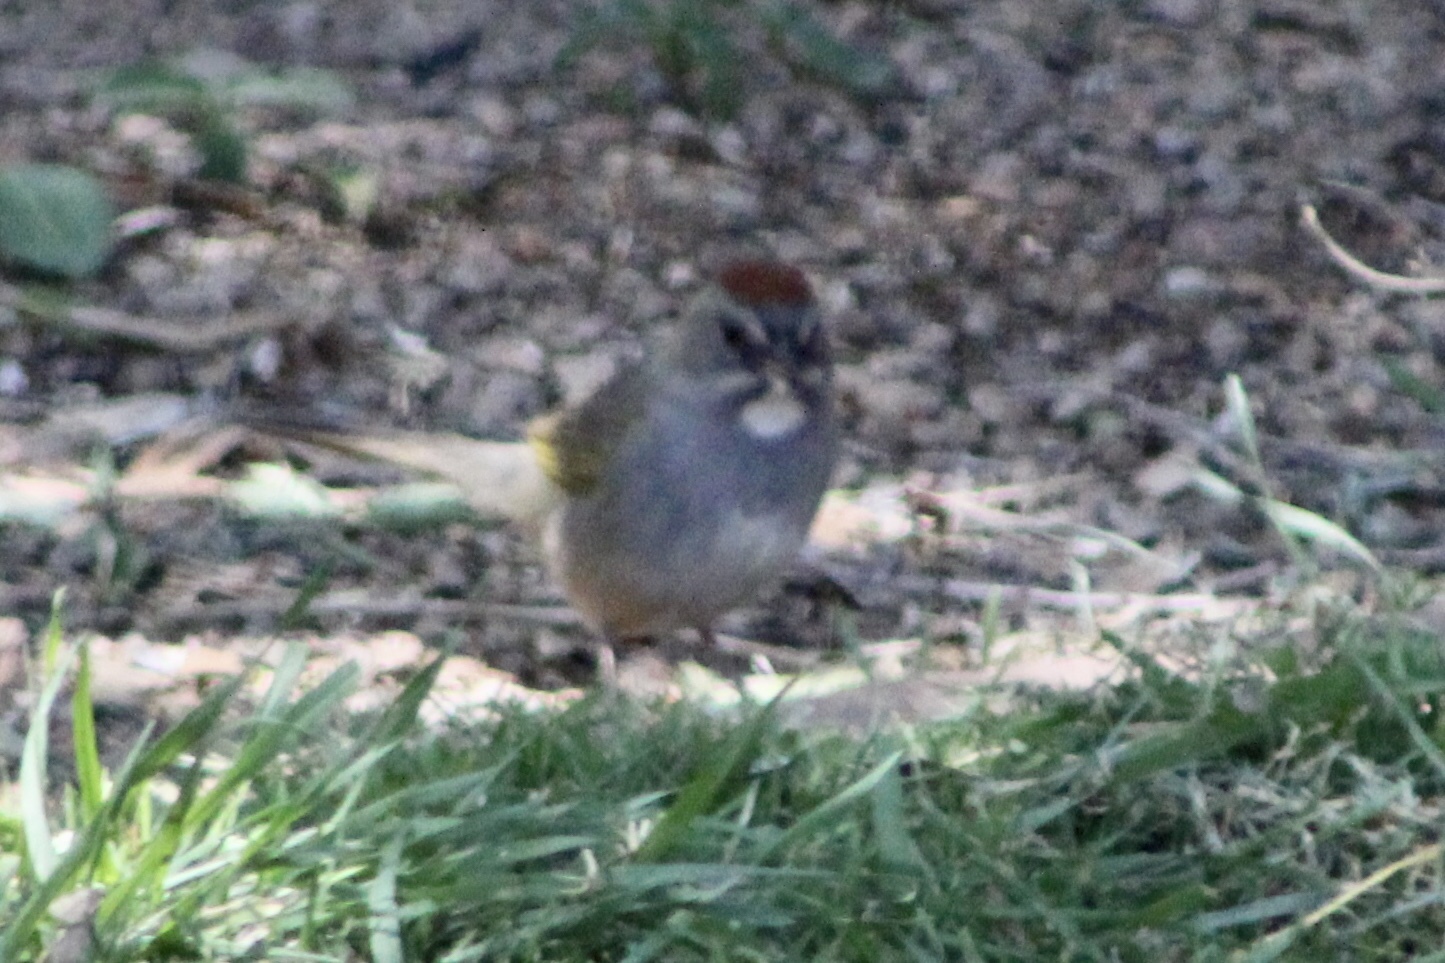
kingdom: Animalia
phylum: Chordata
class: Aves
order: Passeriformes
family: Passerellidae
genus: Pipilo
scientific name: Pipilo chlorurus
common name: Green-tailed towhee
